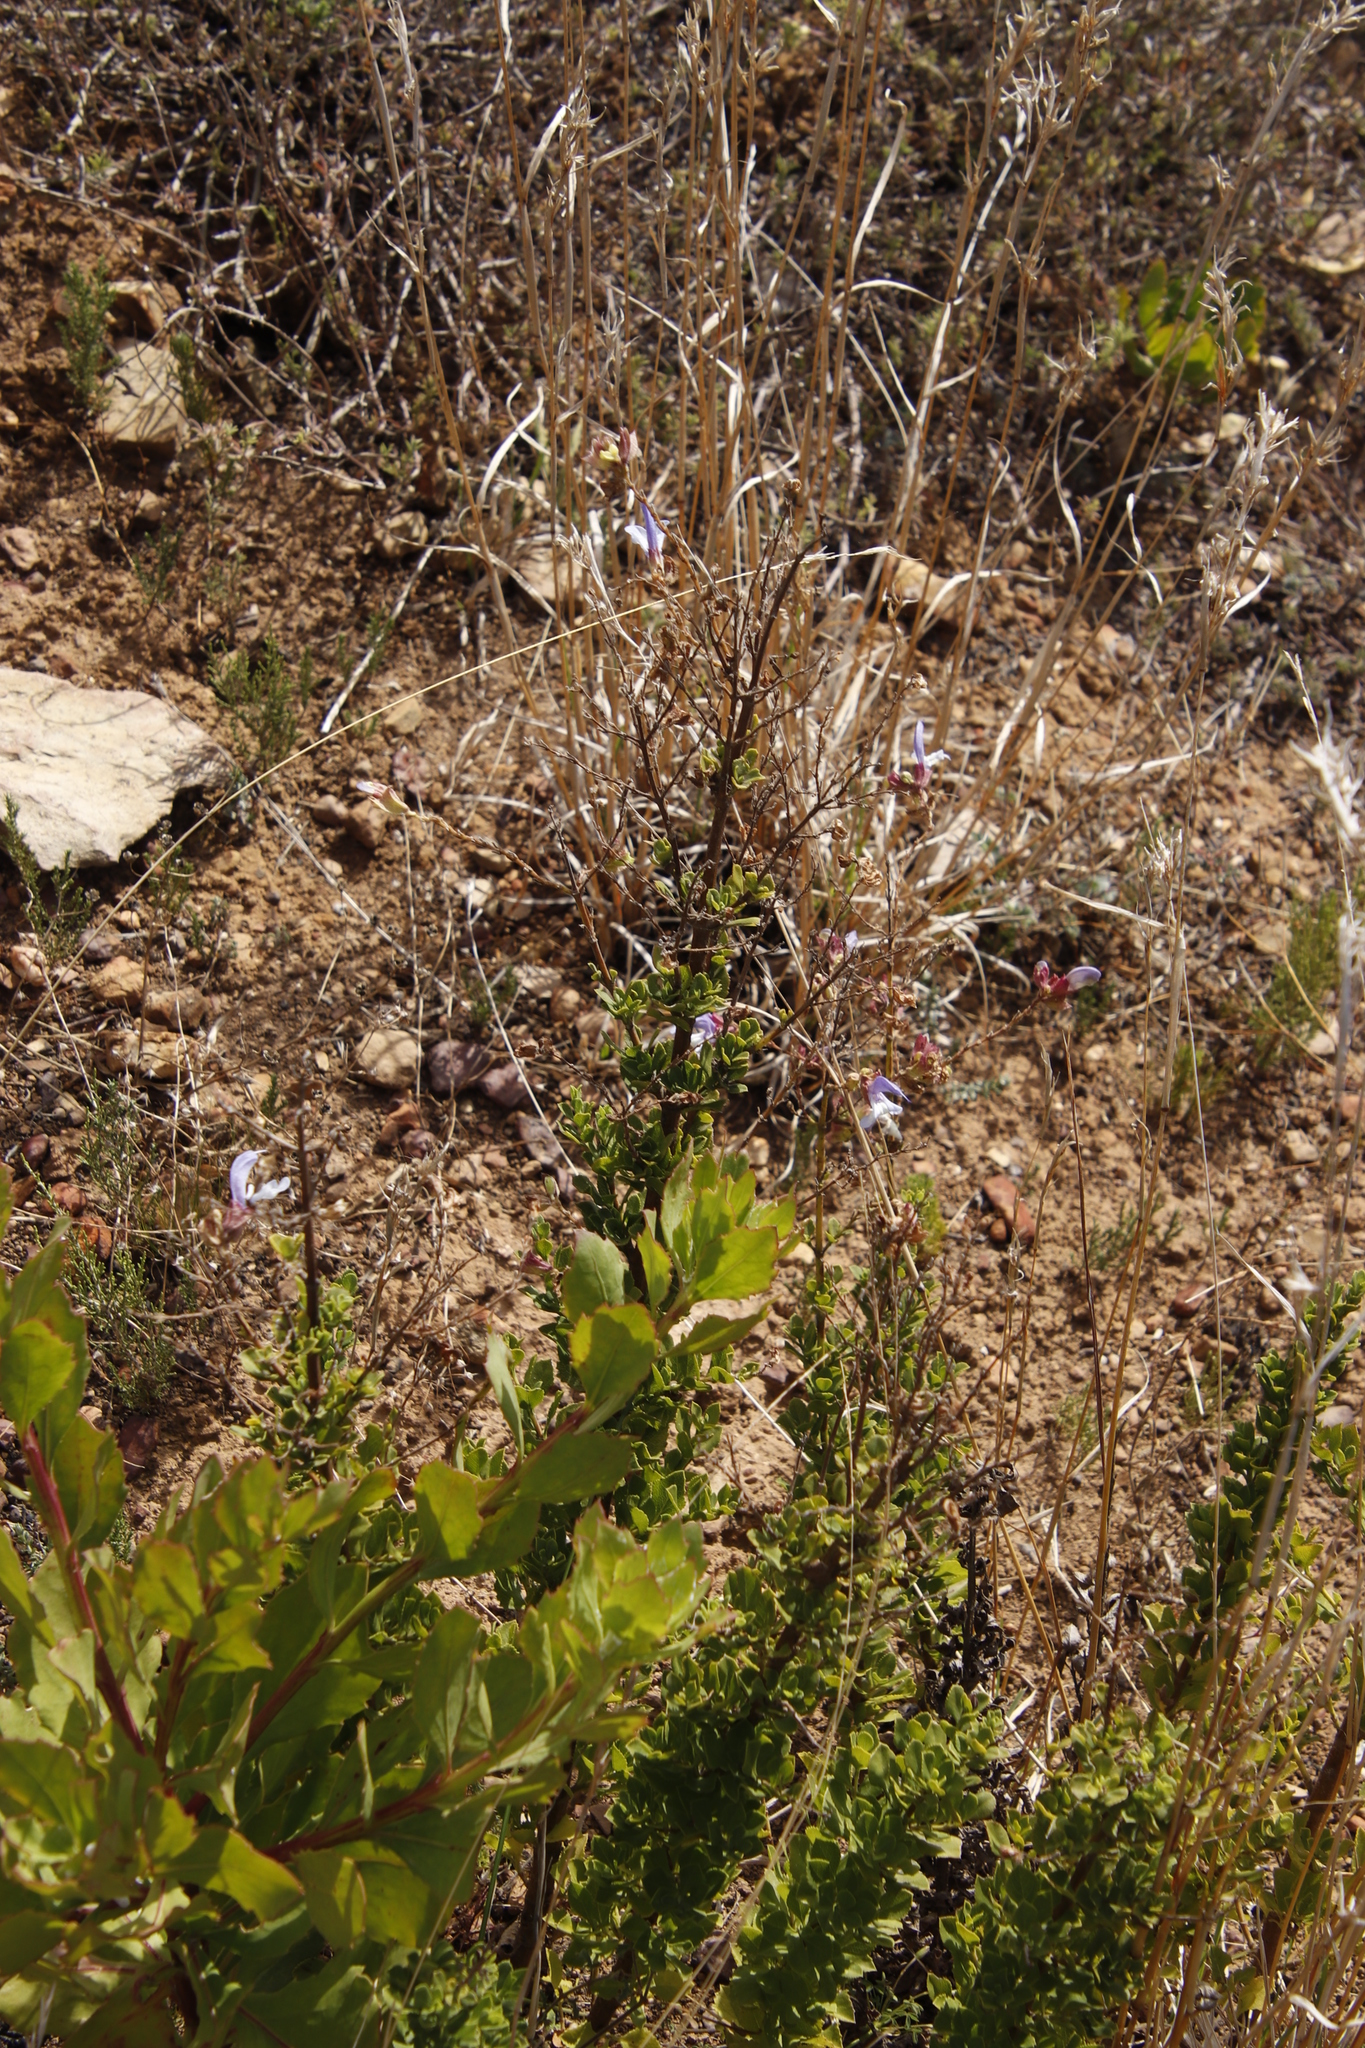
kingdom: Plantae
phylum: Tracheophyta
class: Magnoliopsida
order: Lamiales
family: Lamiaceae
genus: Salvia
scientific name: Salvia chamelaeagnea
